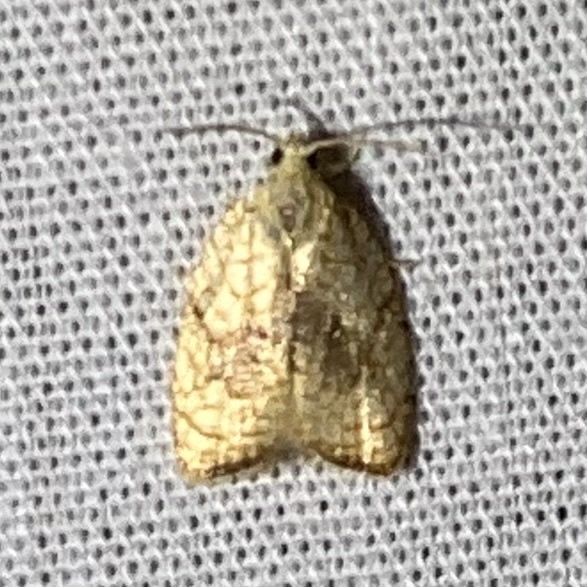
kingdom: Animalia
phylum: Arthropoda
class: Insecta
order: Lepidoptera
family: Tortricidae
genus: Acleris
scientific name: Acleris forsskaleana
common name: Maple button
